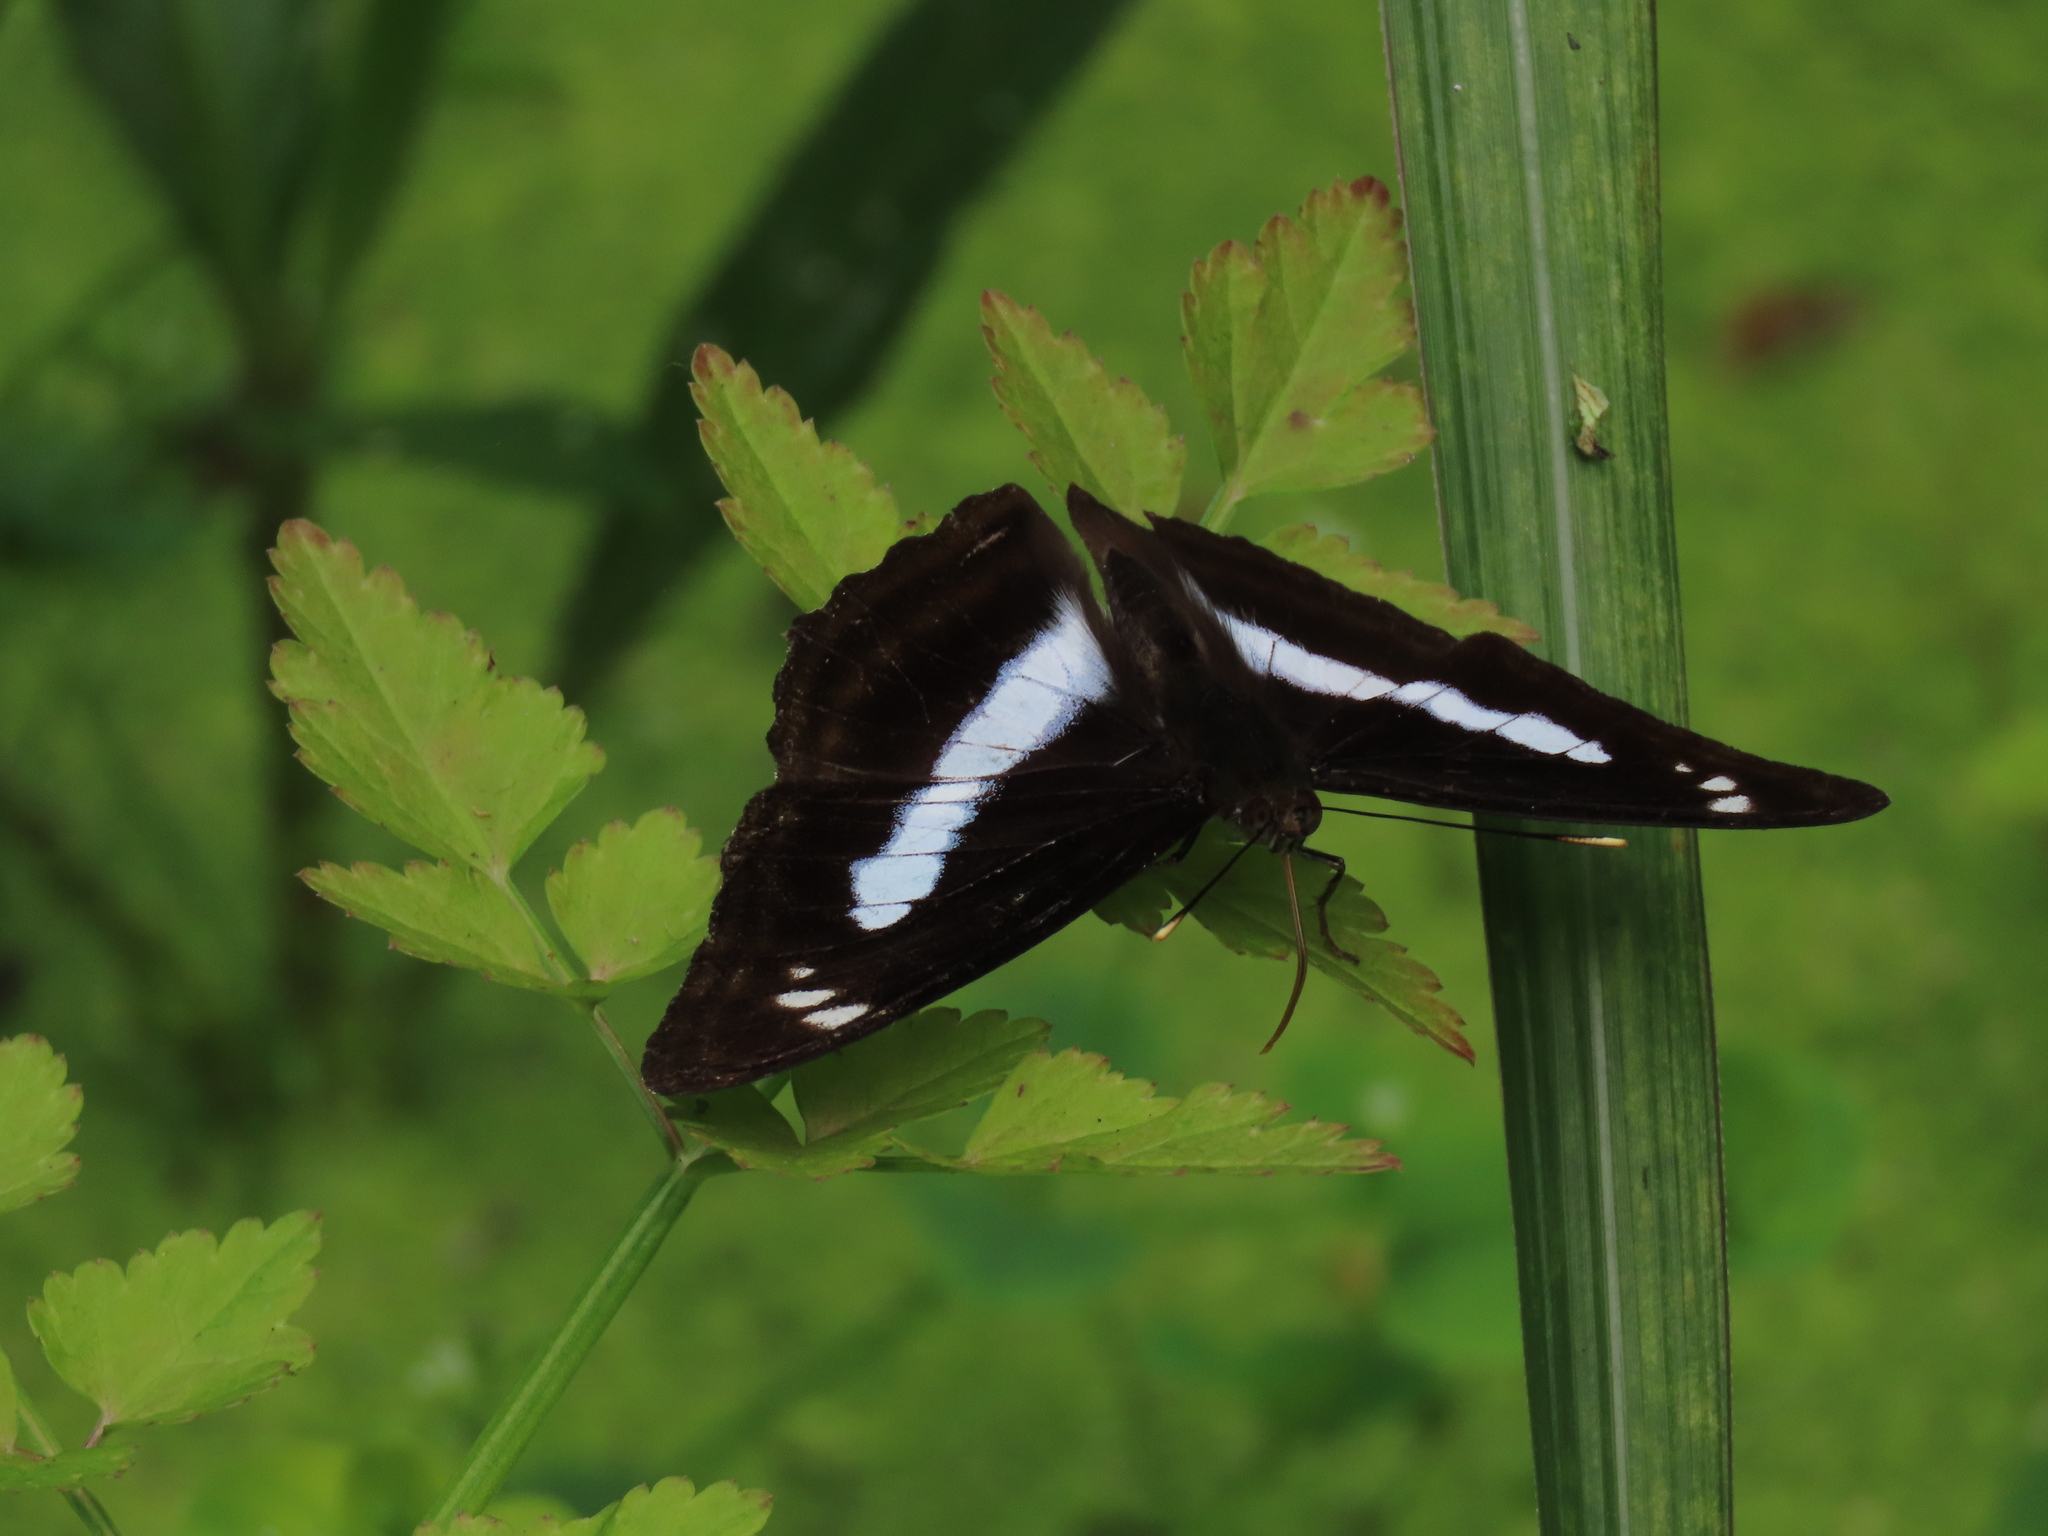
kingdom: Animalia
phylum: Arthropoda
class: Insecta
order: Lepidoptera
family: Nymphalidae
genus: Parathyma
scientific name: Parathyma selenophora
